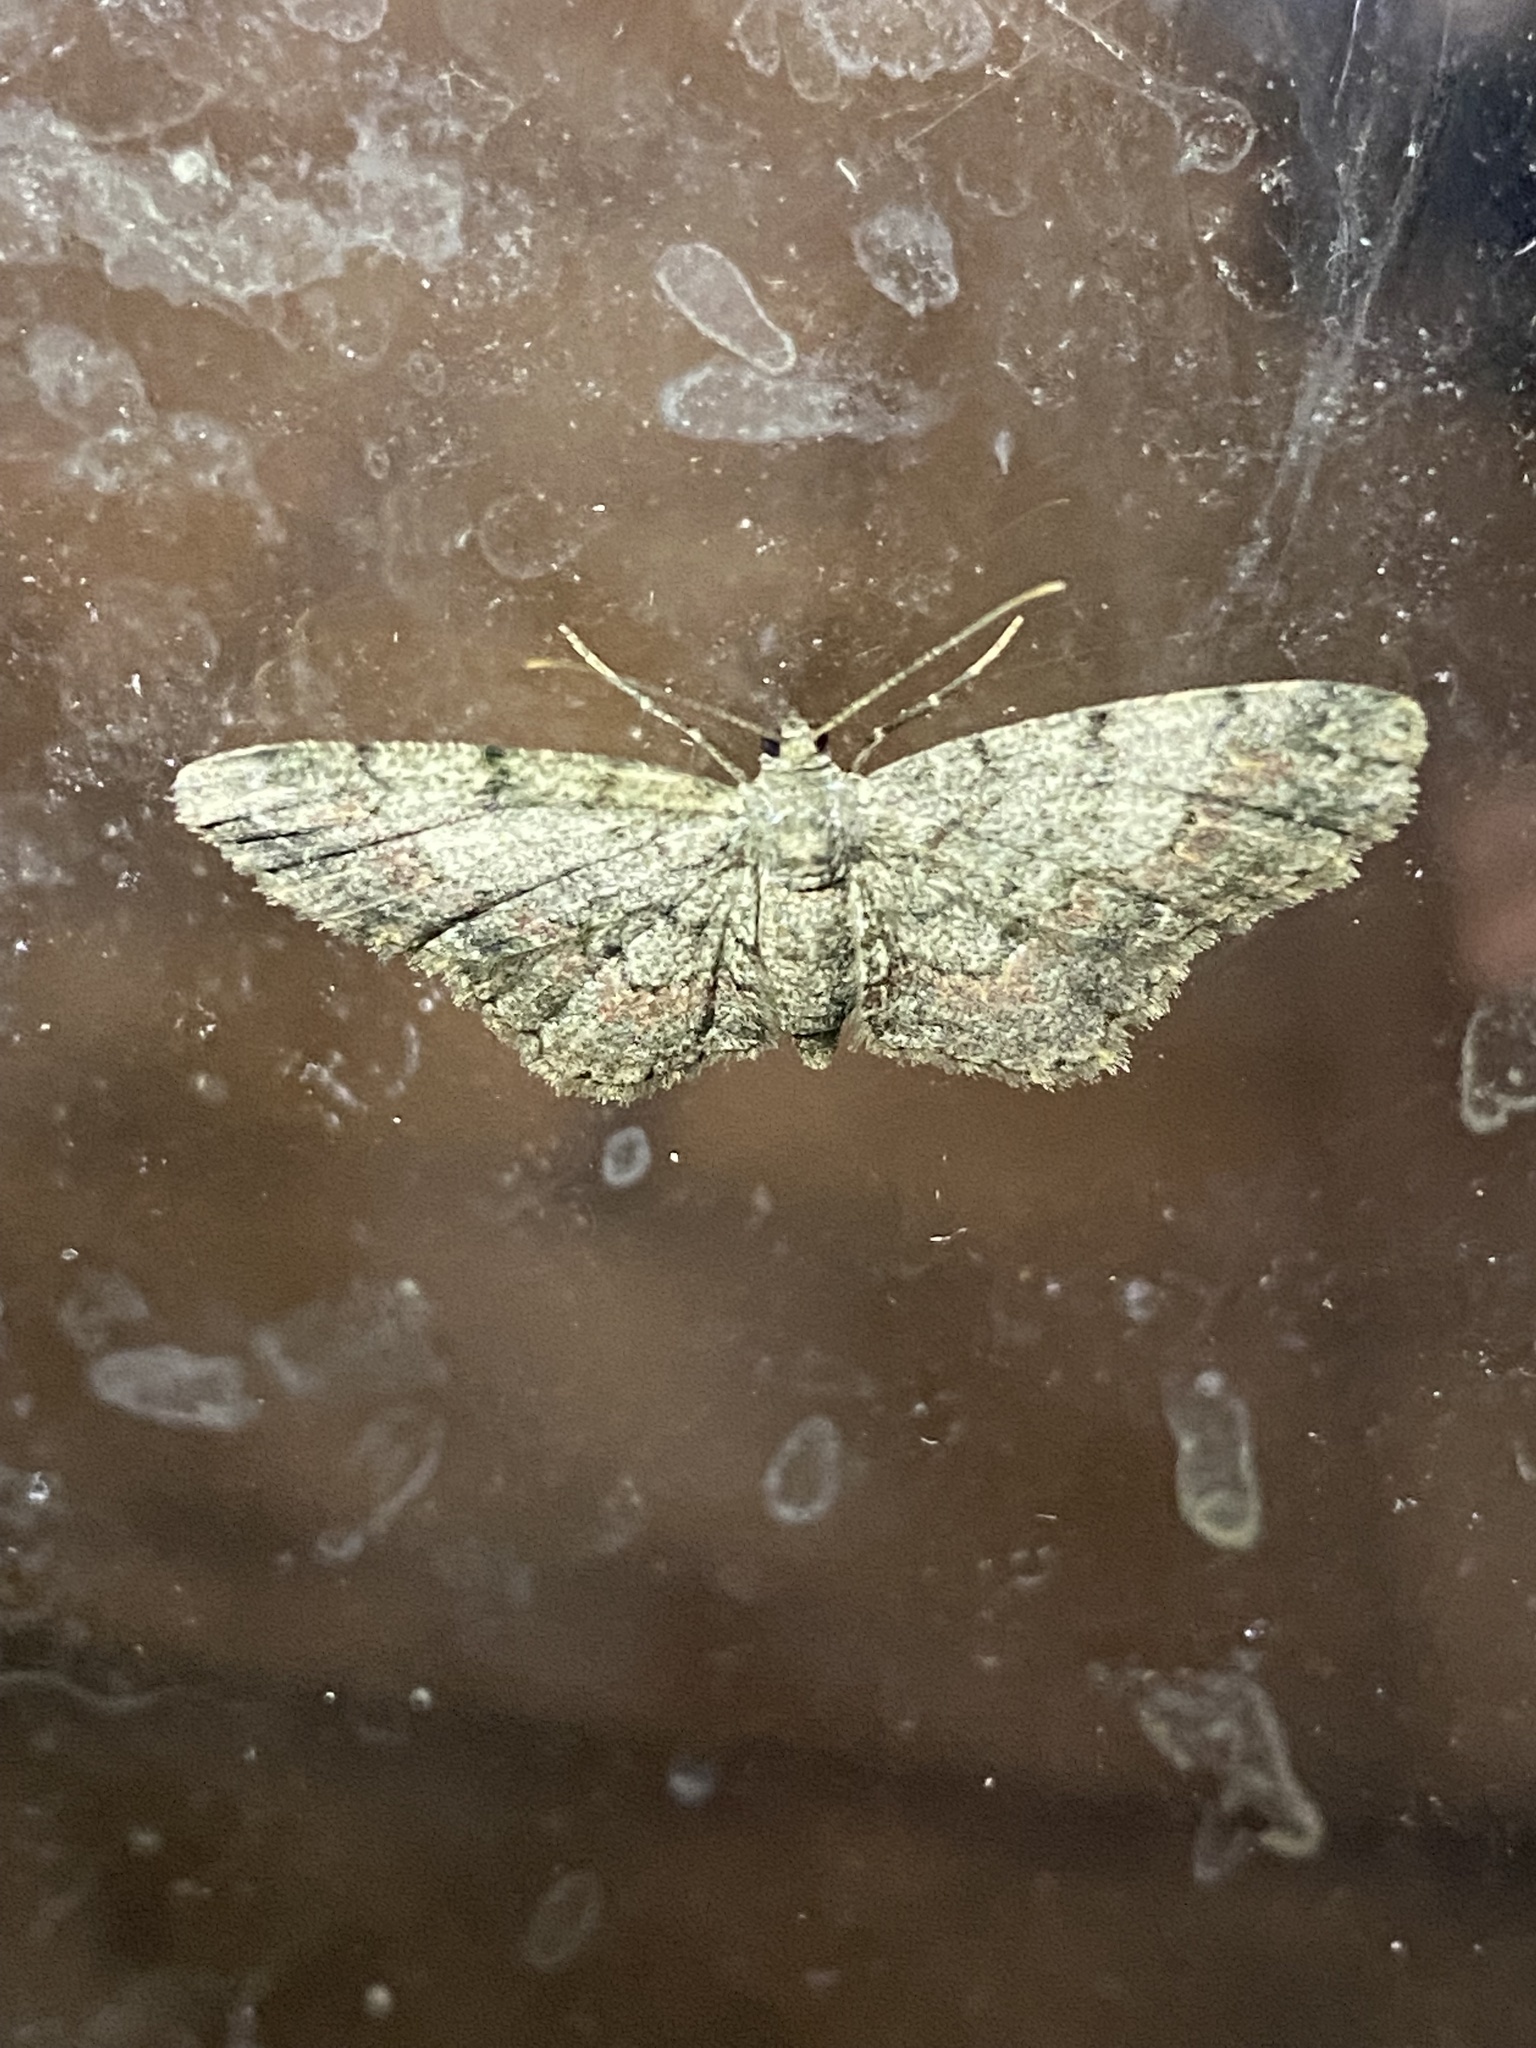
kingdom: Animalia
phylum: Arthropoda
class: Insecta
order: Lepidoptera
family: Geometridae
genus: Glenoides
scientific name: Glenoides texanaria
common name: Texas gray
